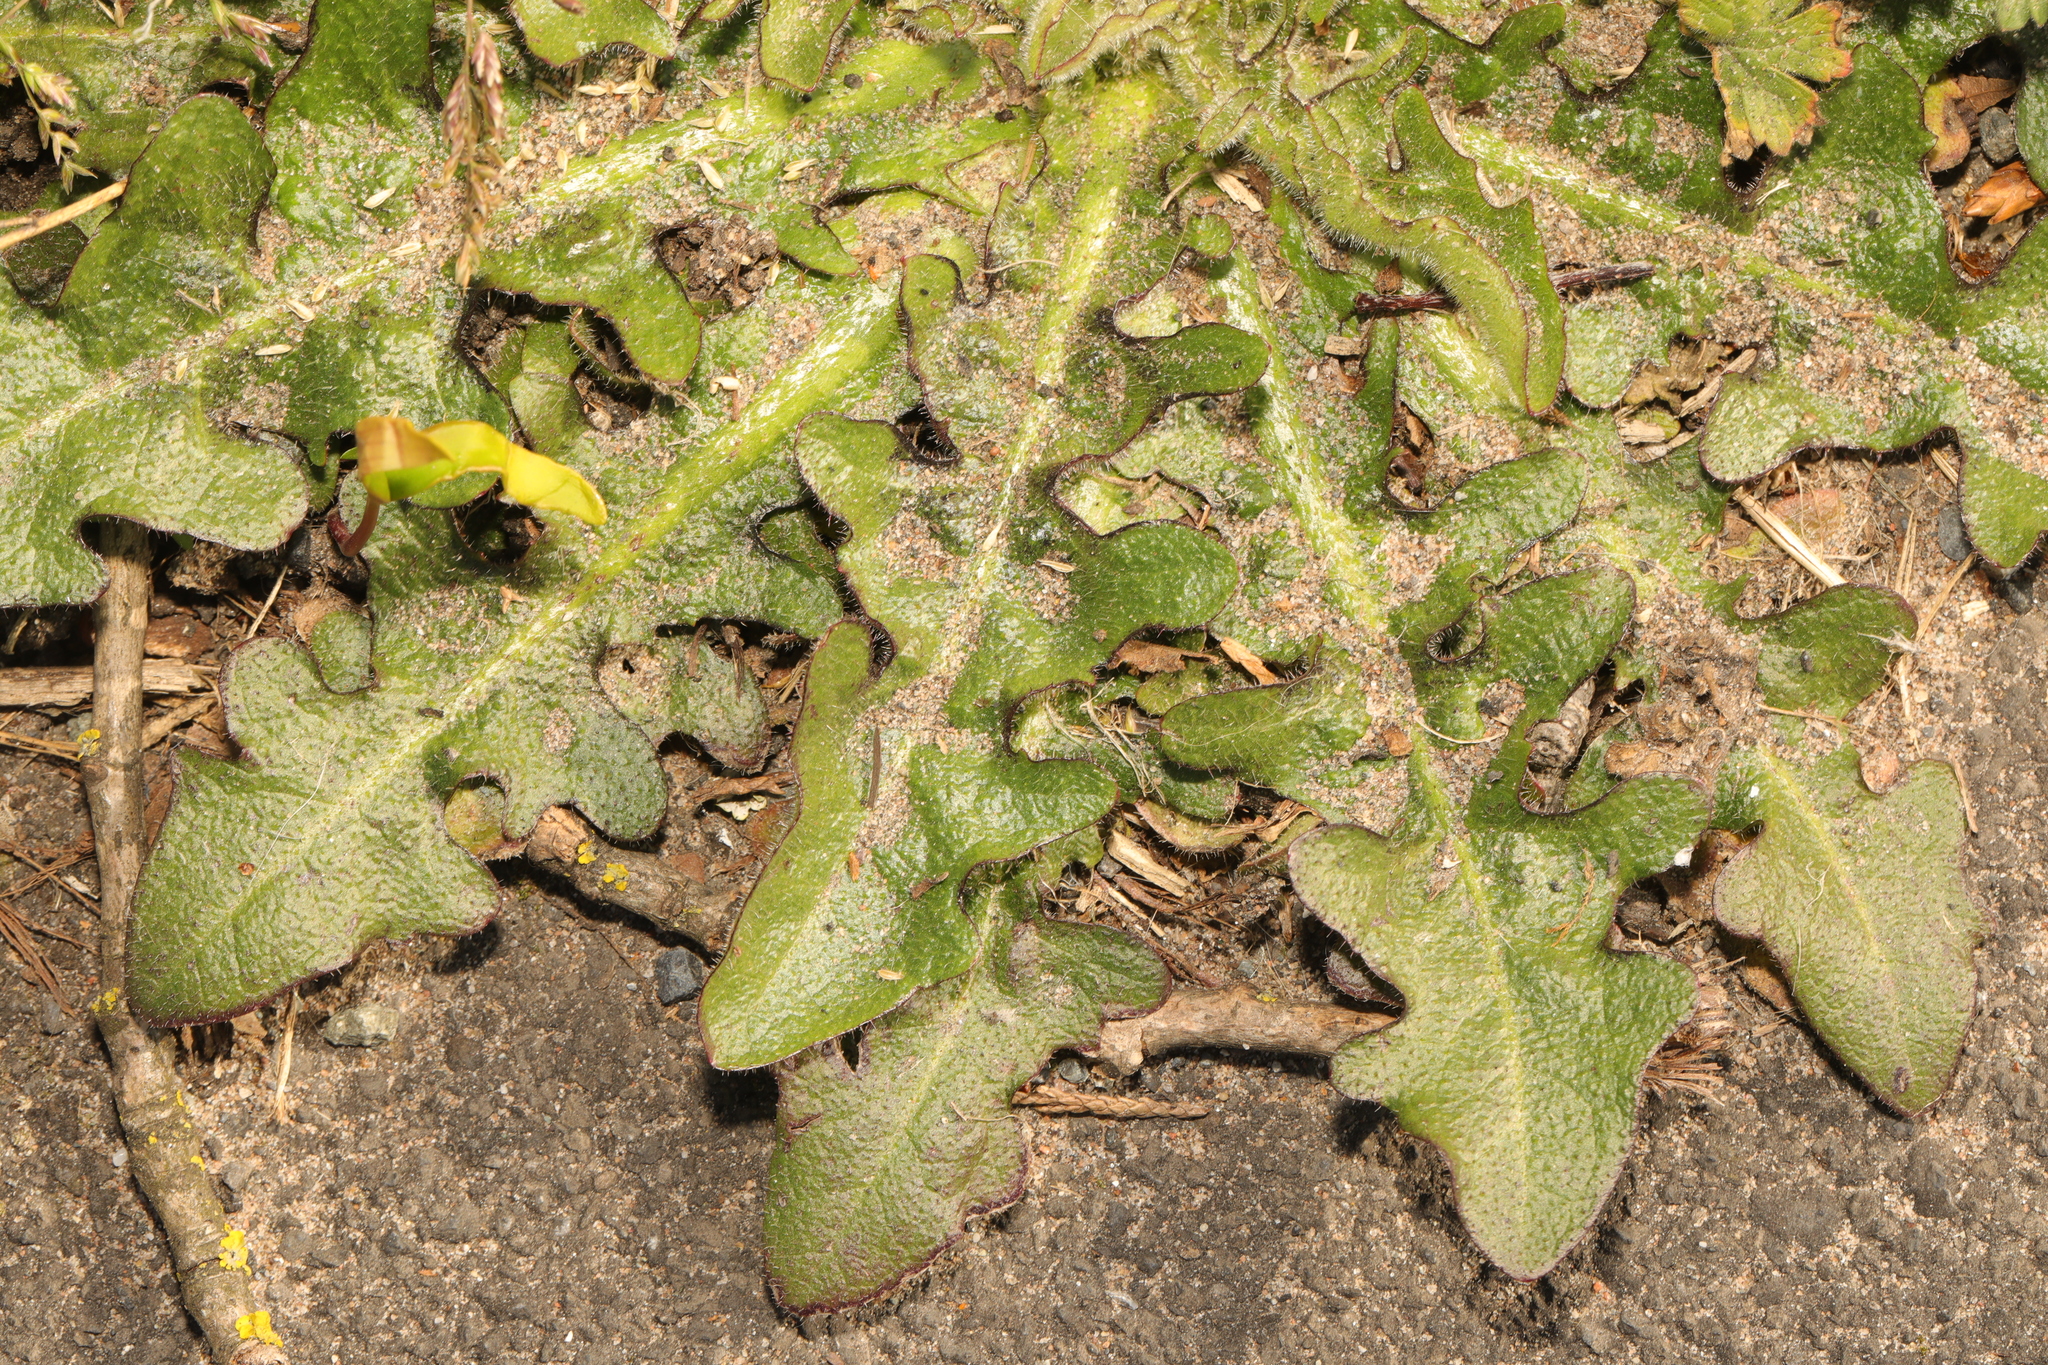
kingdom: Plantae
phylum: Tracheophyta
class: Magnoliopsida
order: Asterales
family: Asteraceae
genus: Hypochaeris
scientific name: Hypochaeris radicata
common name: Flatweed
